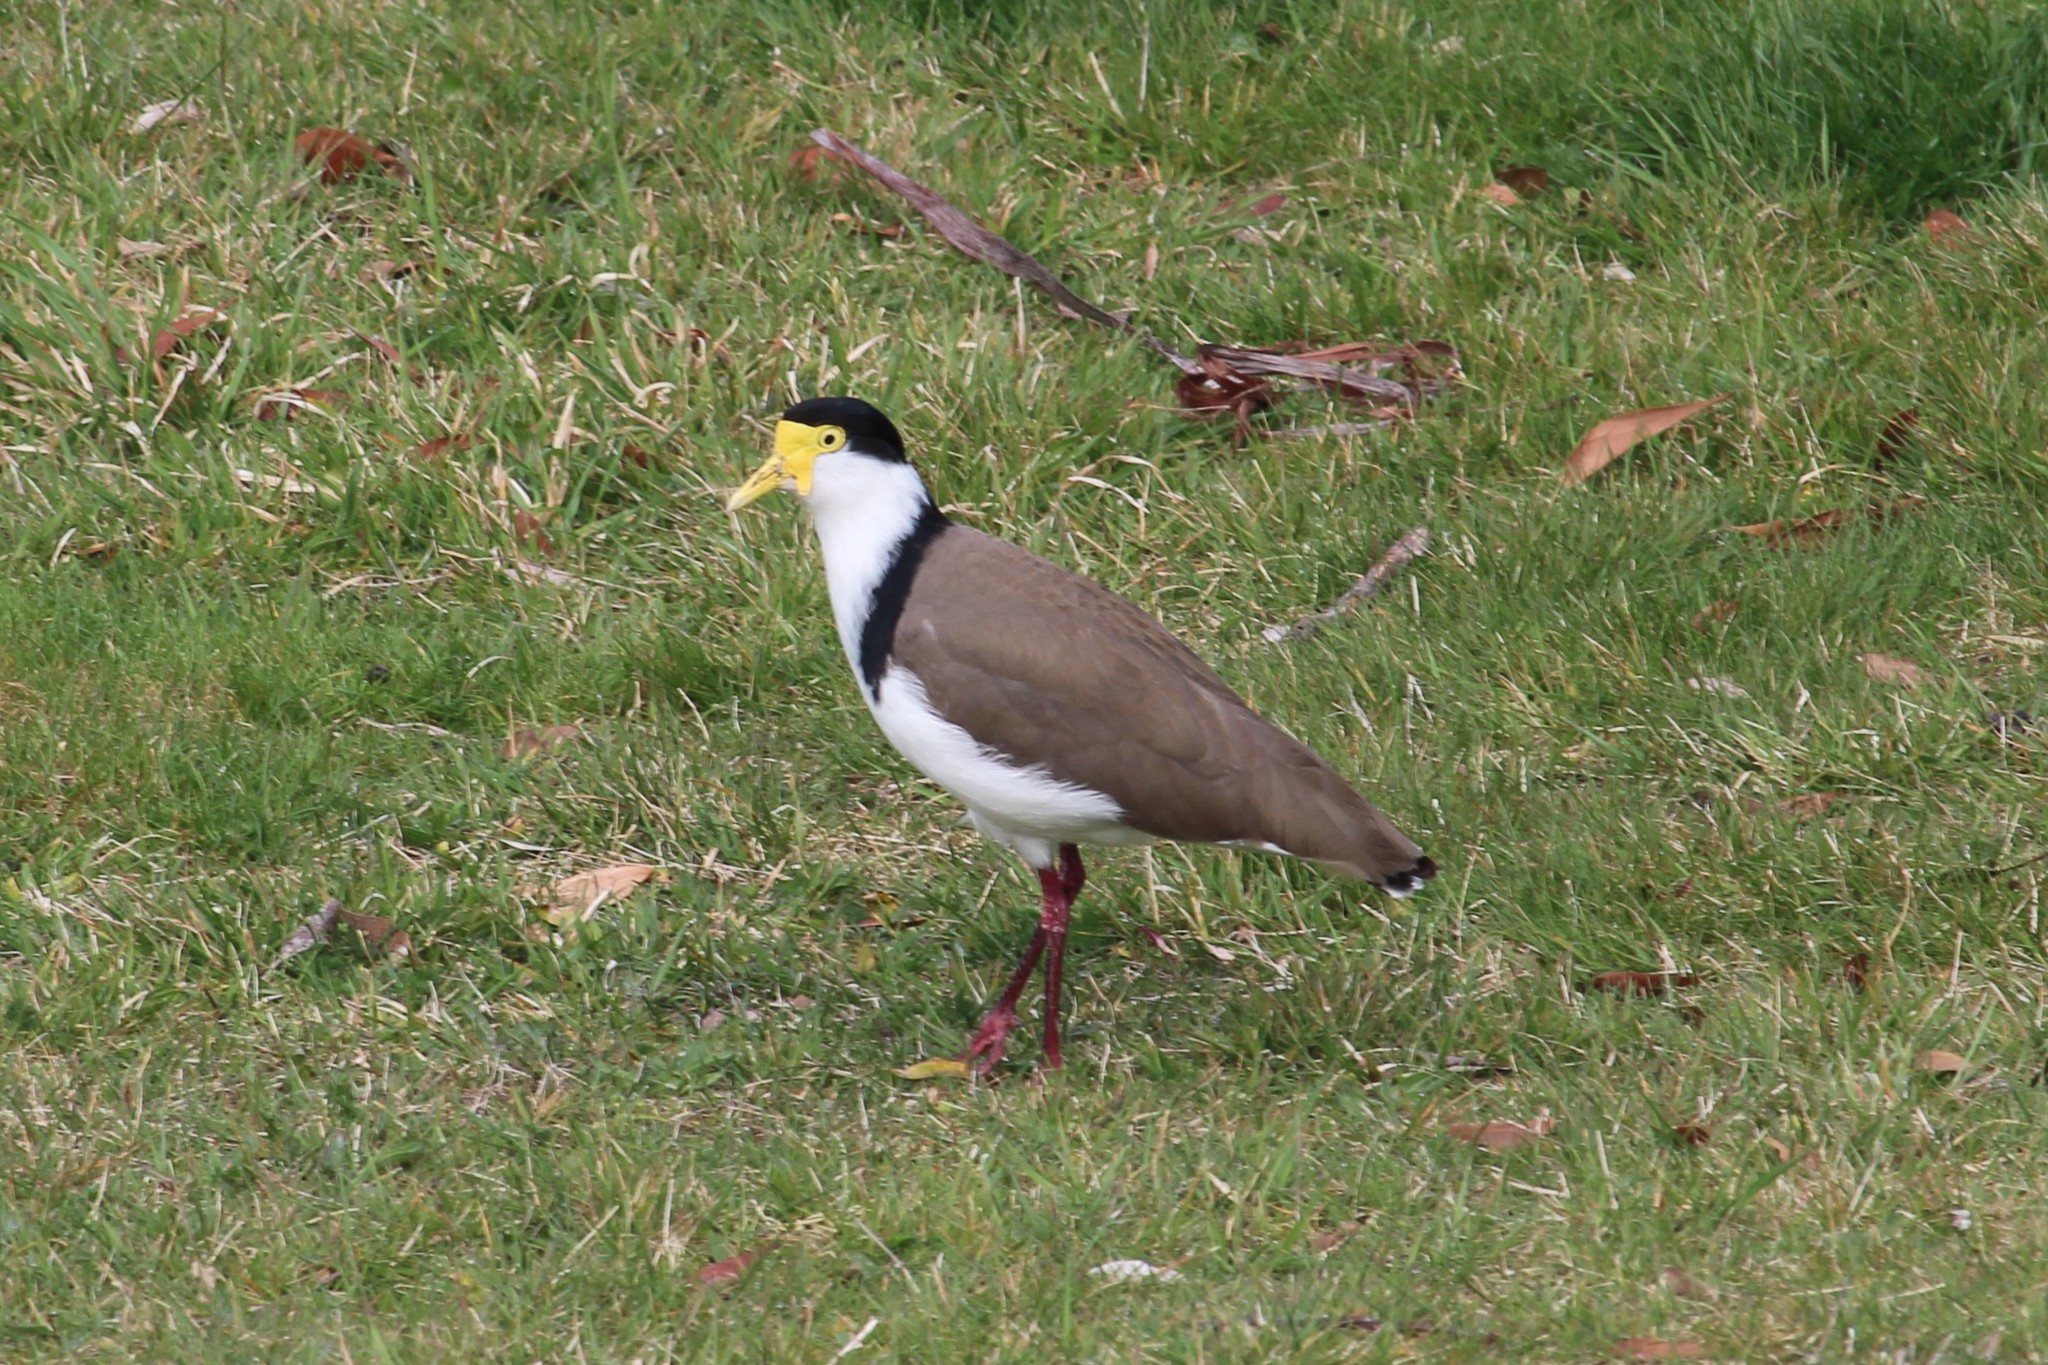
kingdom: Animalia
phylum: Chordata
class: Aves
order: Charadriiformes
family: Charadriidae
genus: Vanellus
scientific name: Vanellus miles
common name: Masked lapwing
